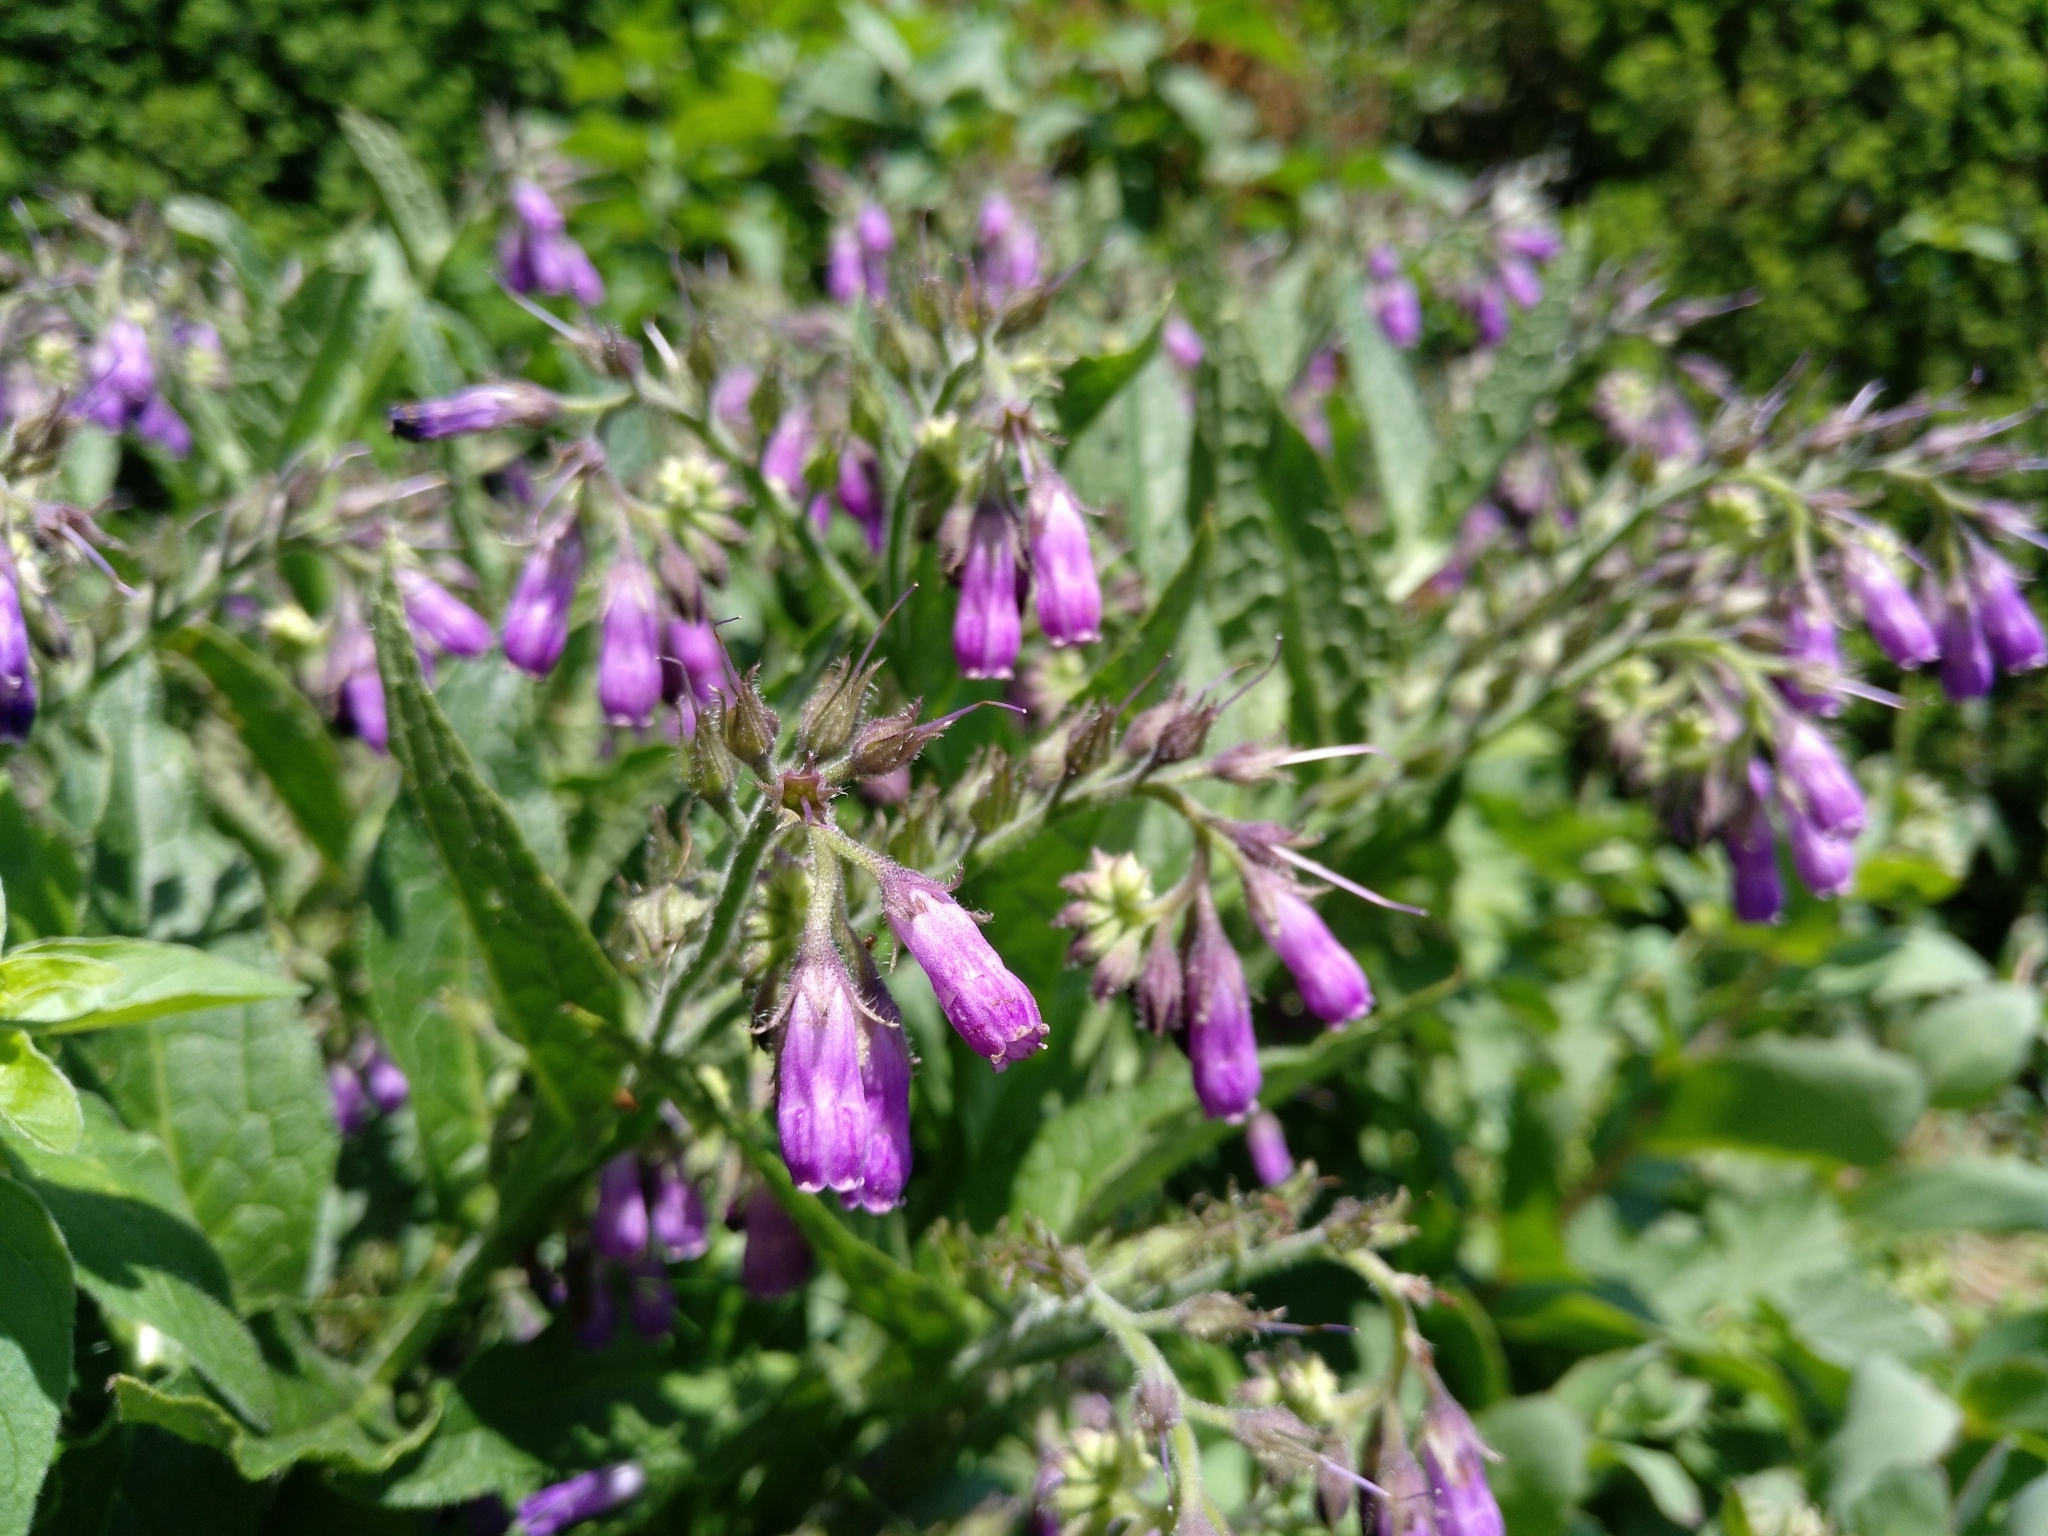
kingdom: Plantae
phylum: Tracheophyta
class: Magnoliopsida
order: Boraginales
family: Boraginaceae
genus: Symphytum
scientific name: Symphytum officinale
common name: Common comfrey
